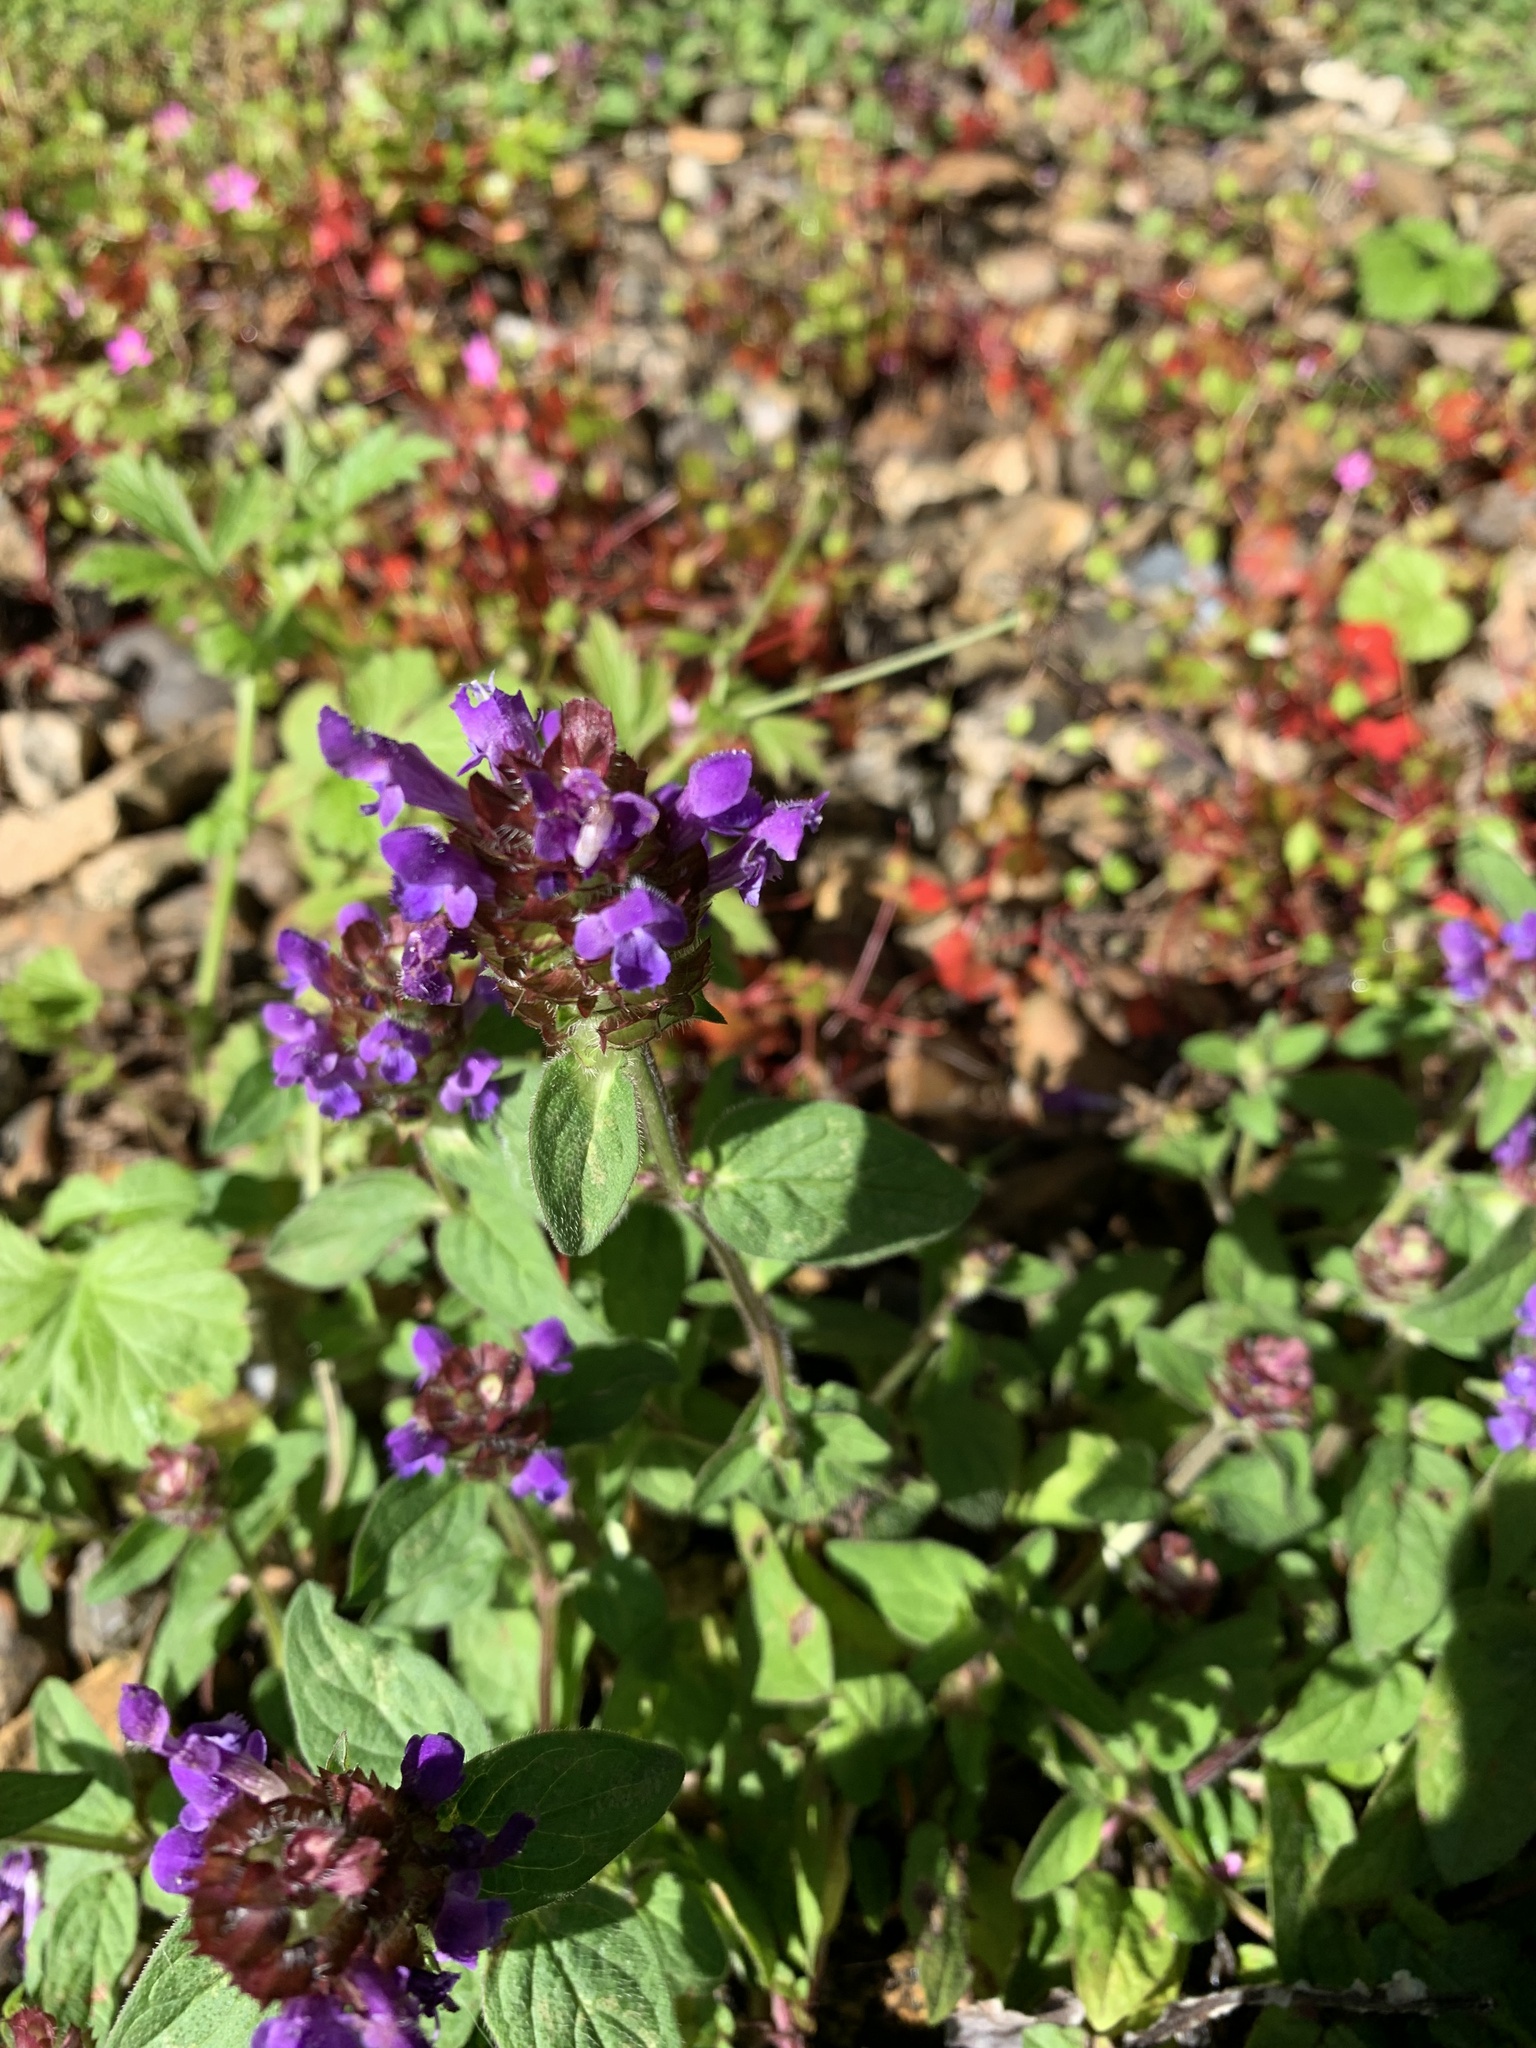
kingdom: Plantae
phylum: Tracheophyta
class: Magnoliopsida
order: Lamiales
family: Lamiaceae
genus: Prunella
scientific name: Prunella vulgaris
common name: Heal-all
